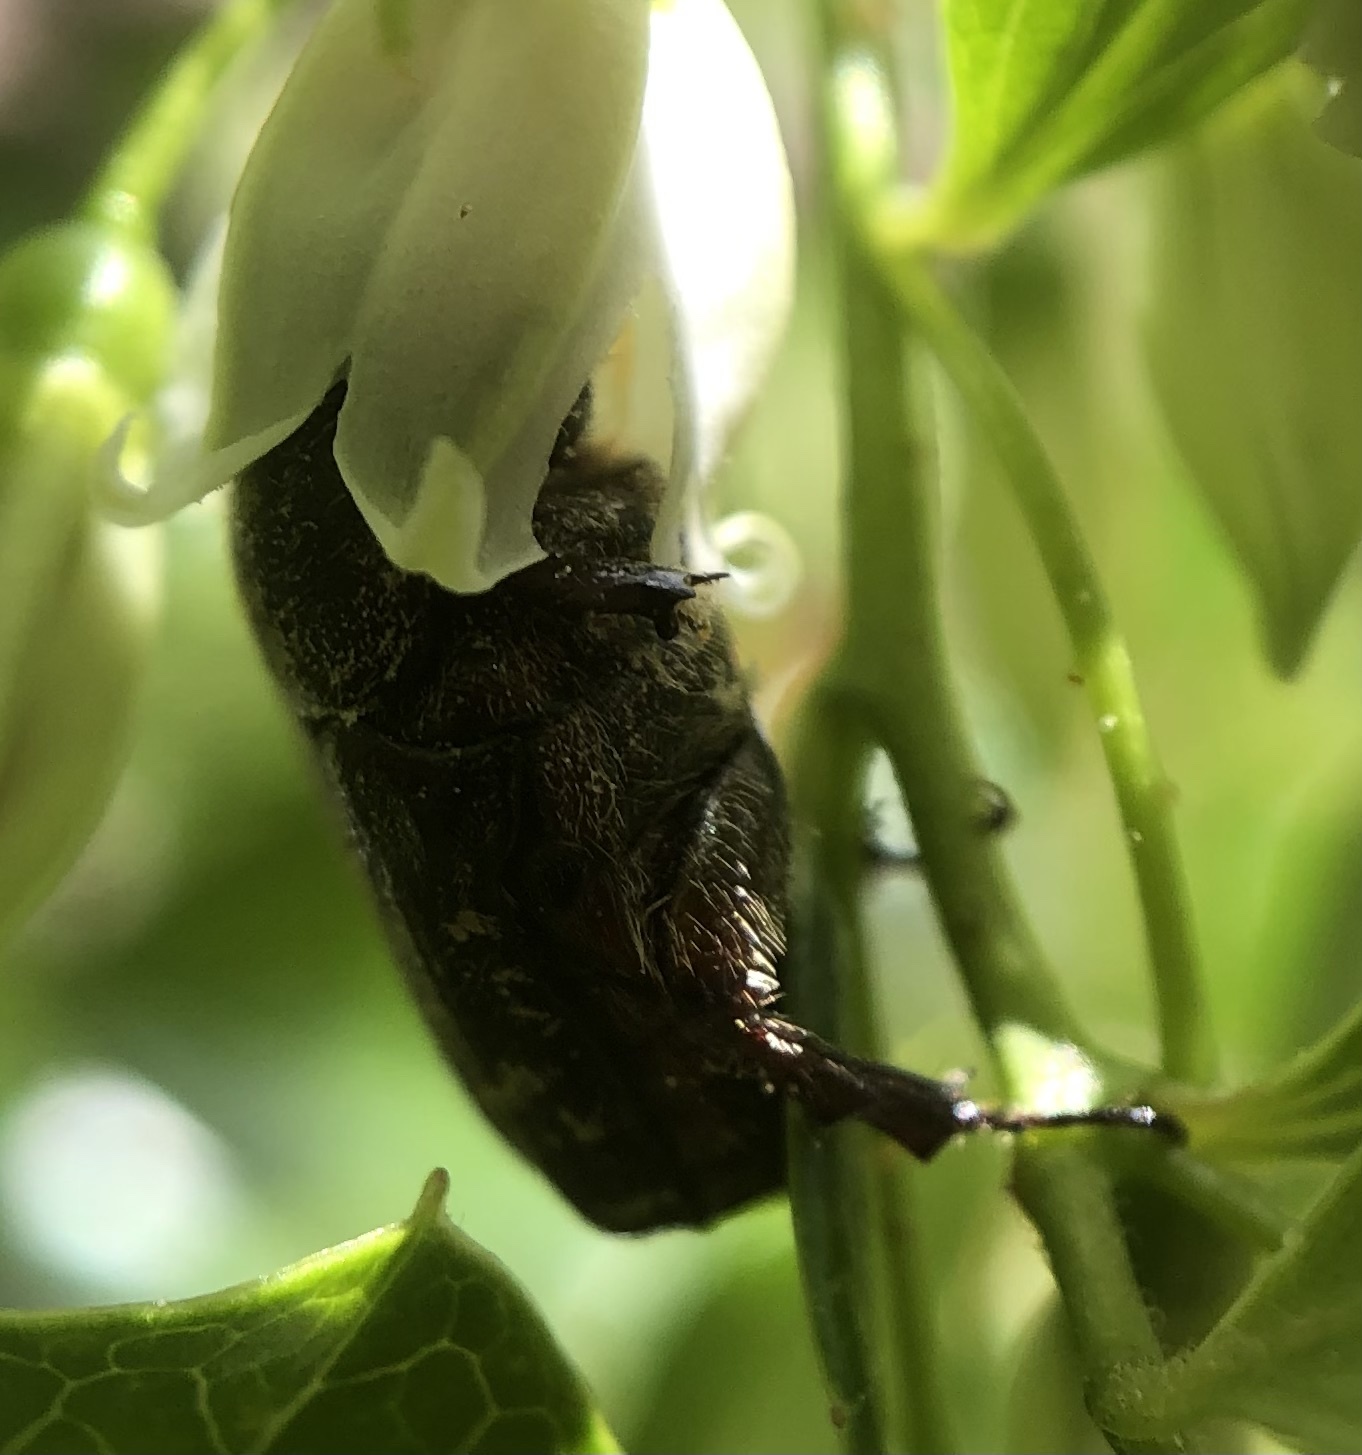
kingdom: Animalia
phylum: Arthropoda
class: Insecta
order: Coleoptera
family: Scarabaeidae
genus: Euphoria
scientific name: Euphoria sepulcralis
